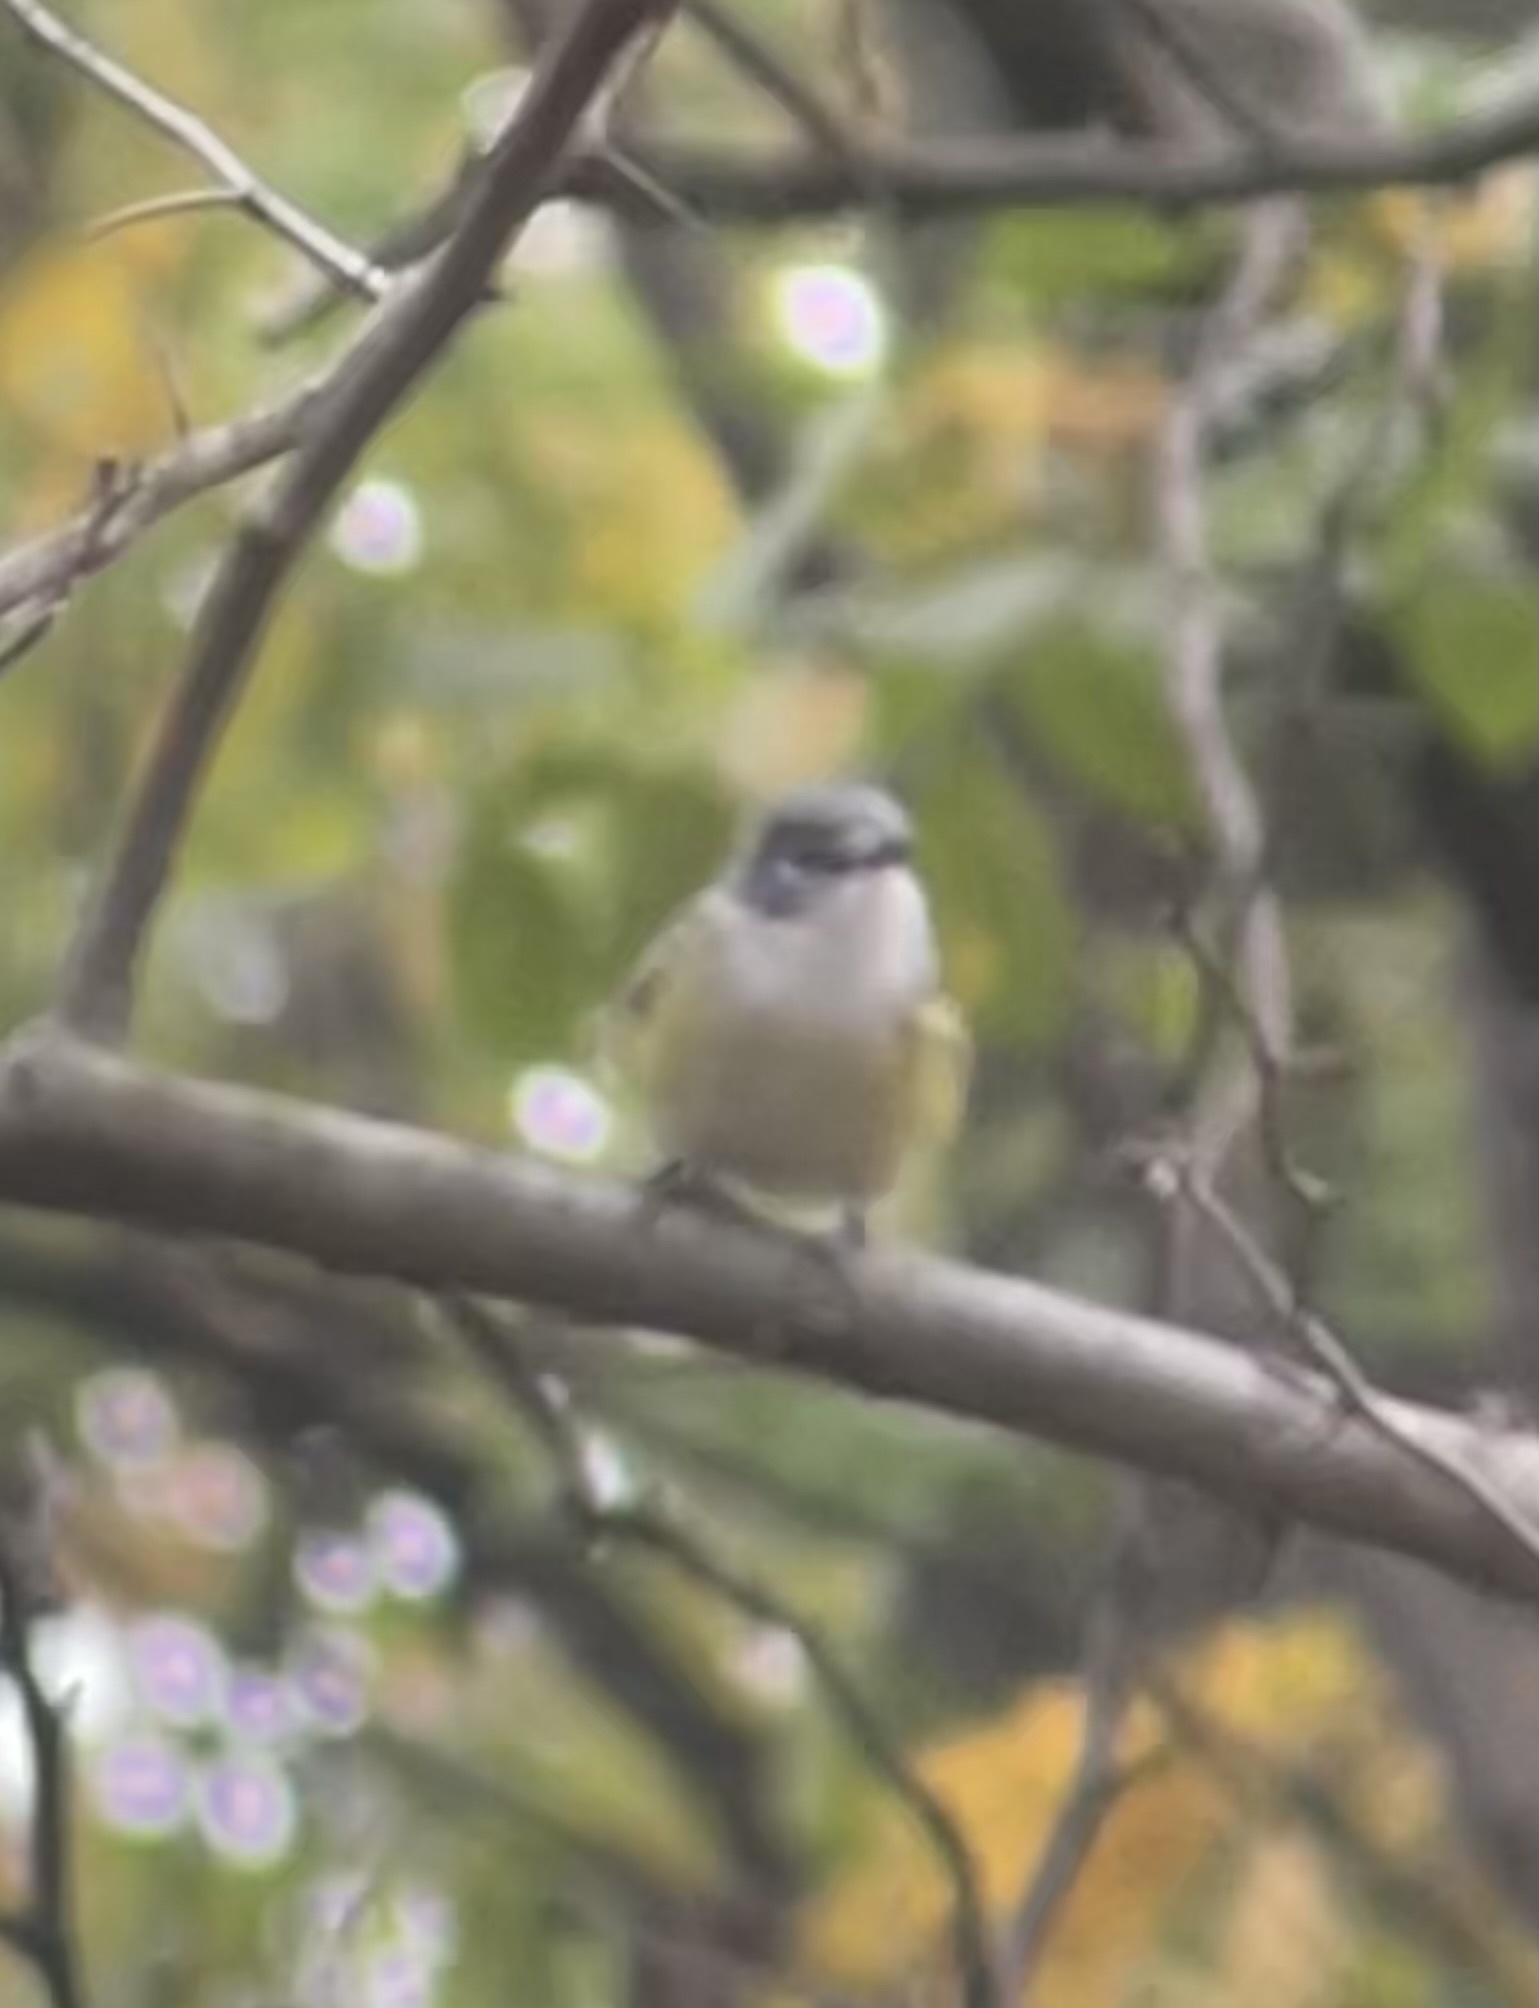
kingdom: Animalia
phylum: Chordata
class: Aves
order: Passeriformes
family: Vireonidae
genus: Vireo
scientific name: Vireo solitarius
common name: Blue-headed vireo
